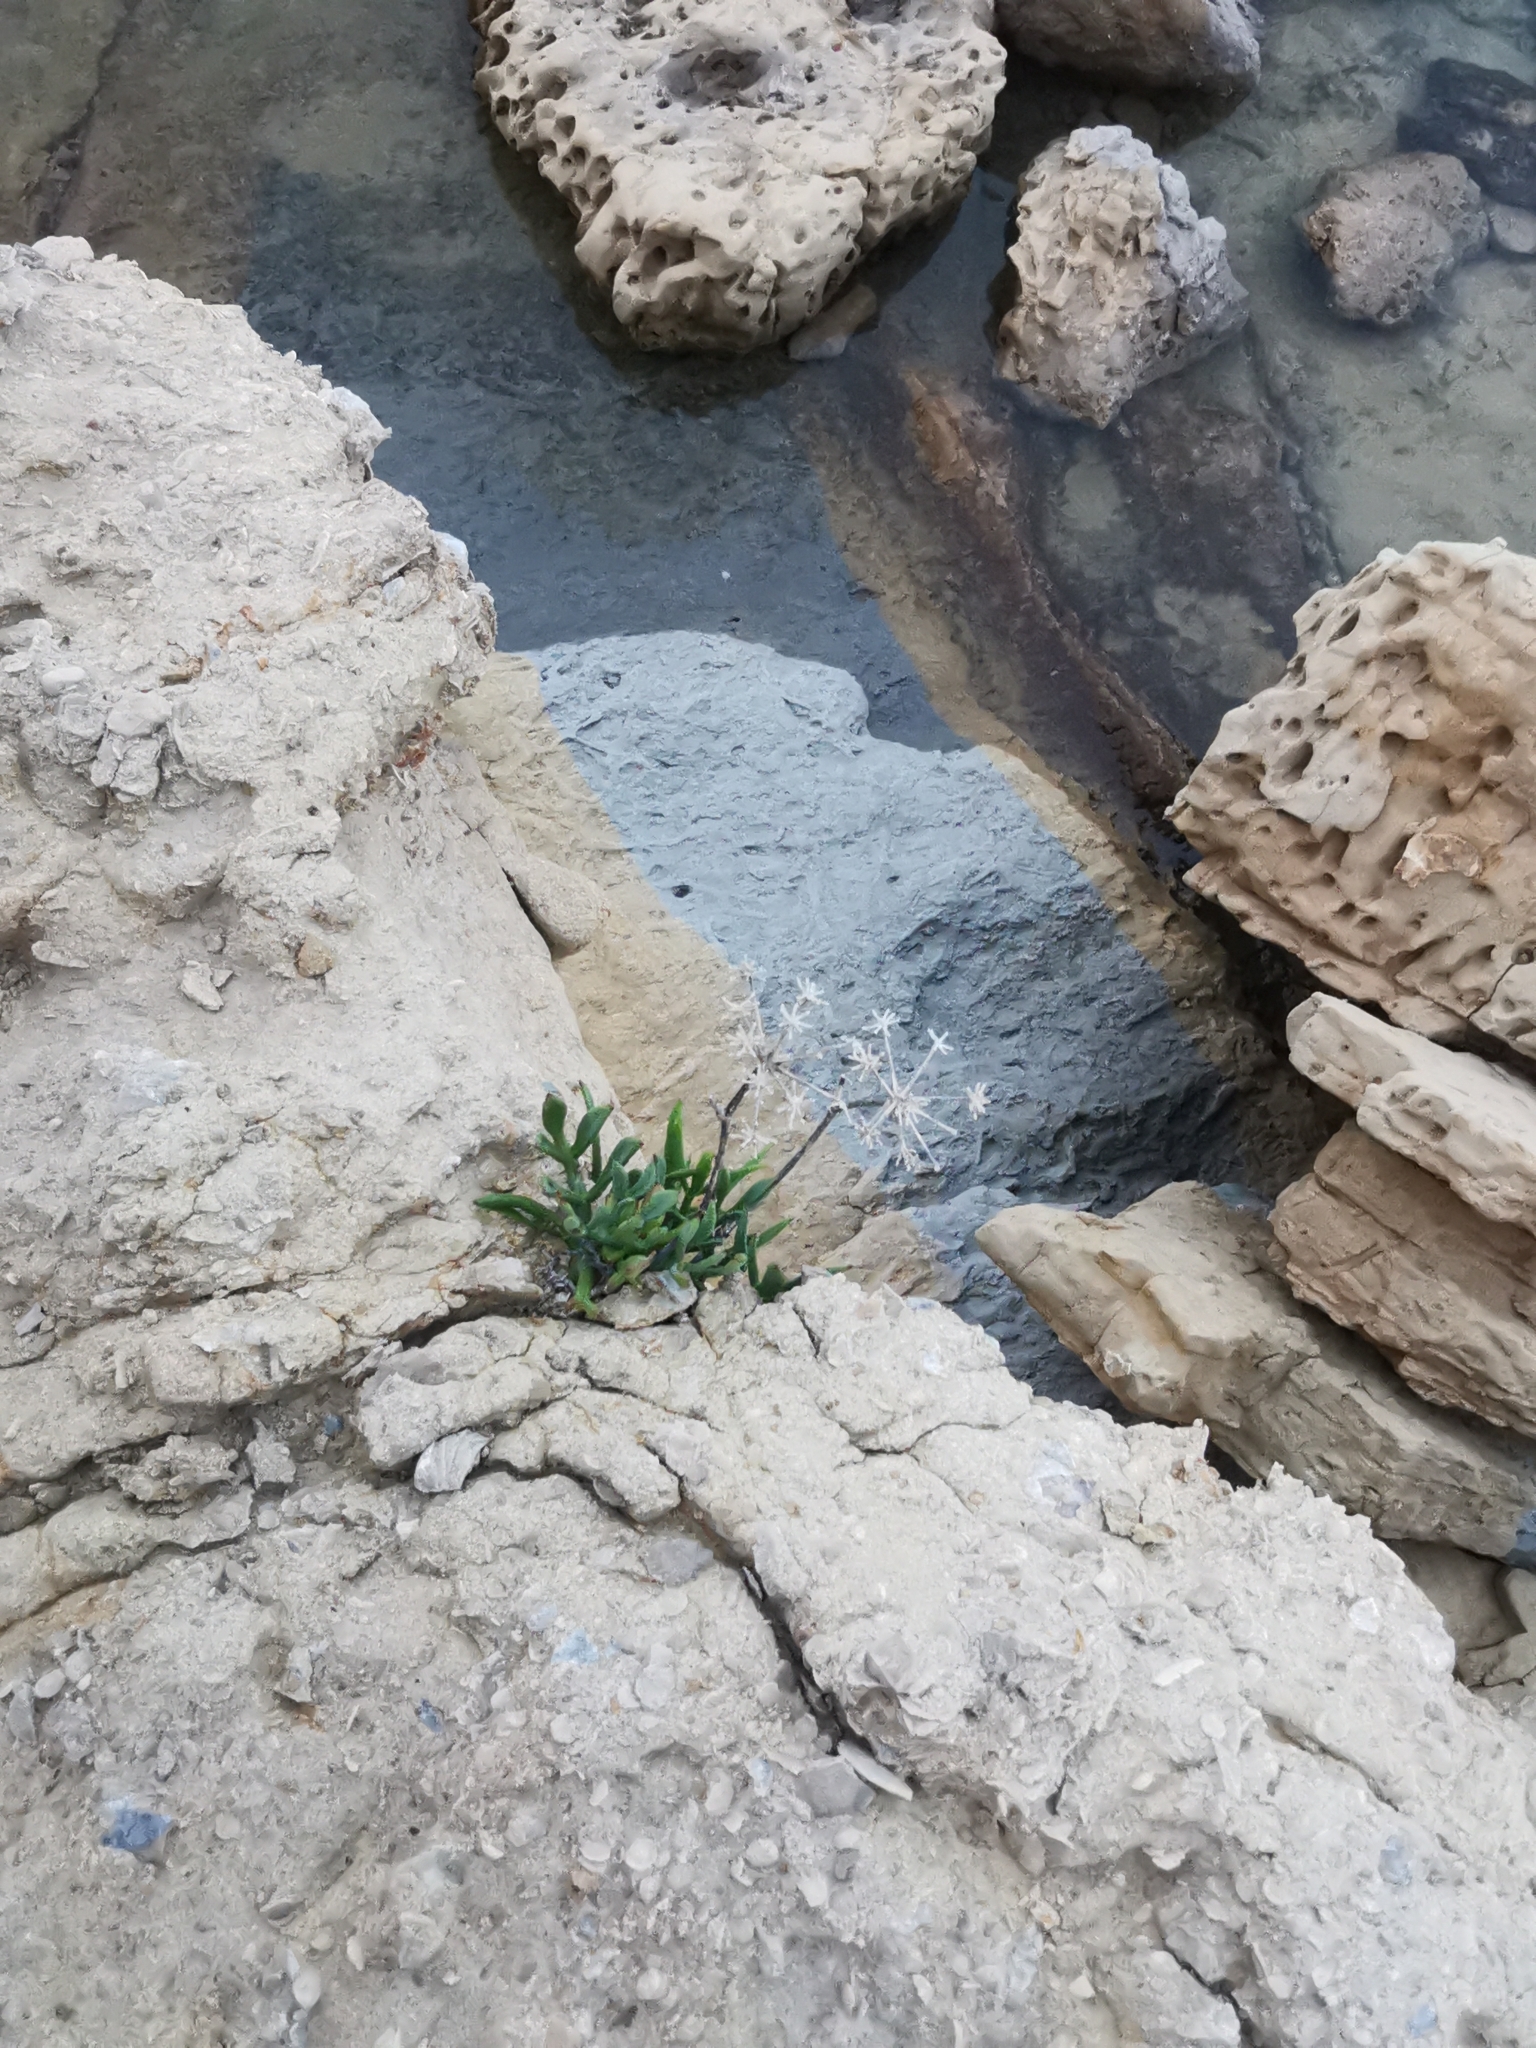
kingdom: Plantae
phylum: Tracheophyta
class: Magnoliopsida
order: Apiales
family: Apiaceae
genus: Crithmum
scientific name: Crithmum maritimum
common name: Rock samphire
